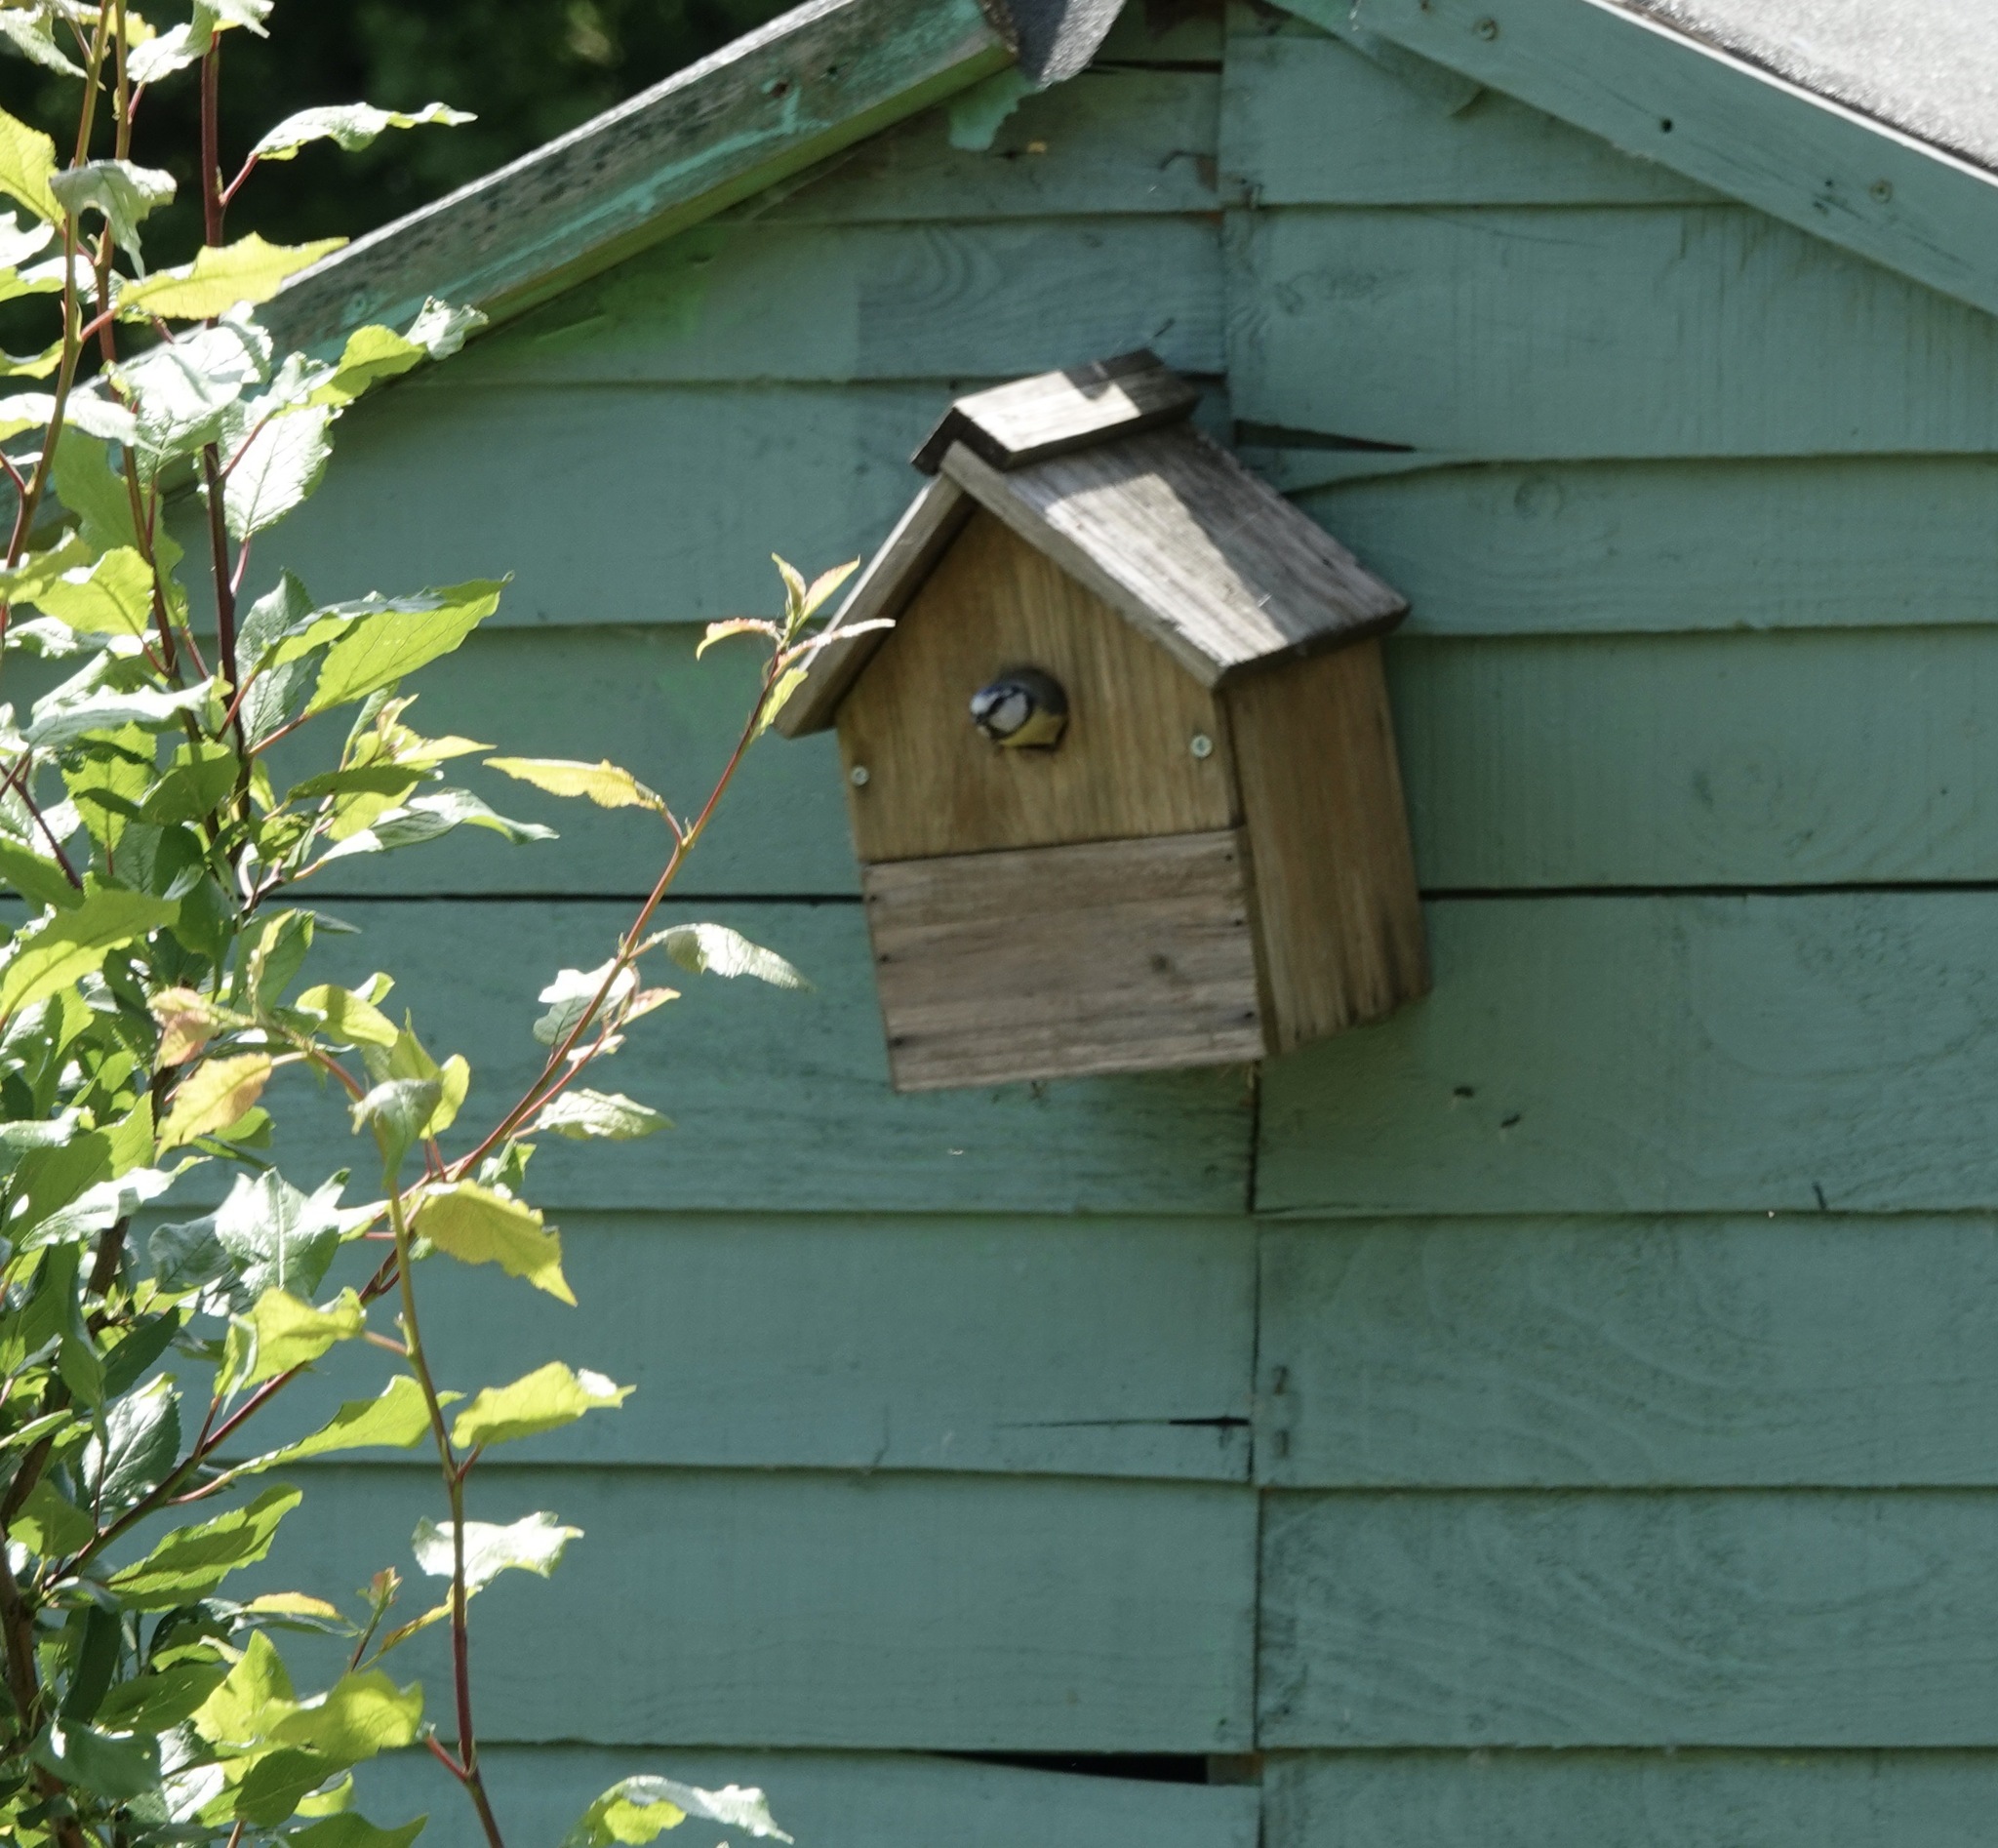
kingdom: Animalia
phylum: Chordata
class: Aves
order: Passeriformes
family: Paridae
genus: Cyanistes
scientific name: Cyanistes caeruleus
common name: Eurasian blue tit
